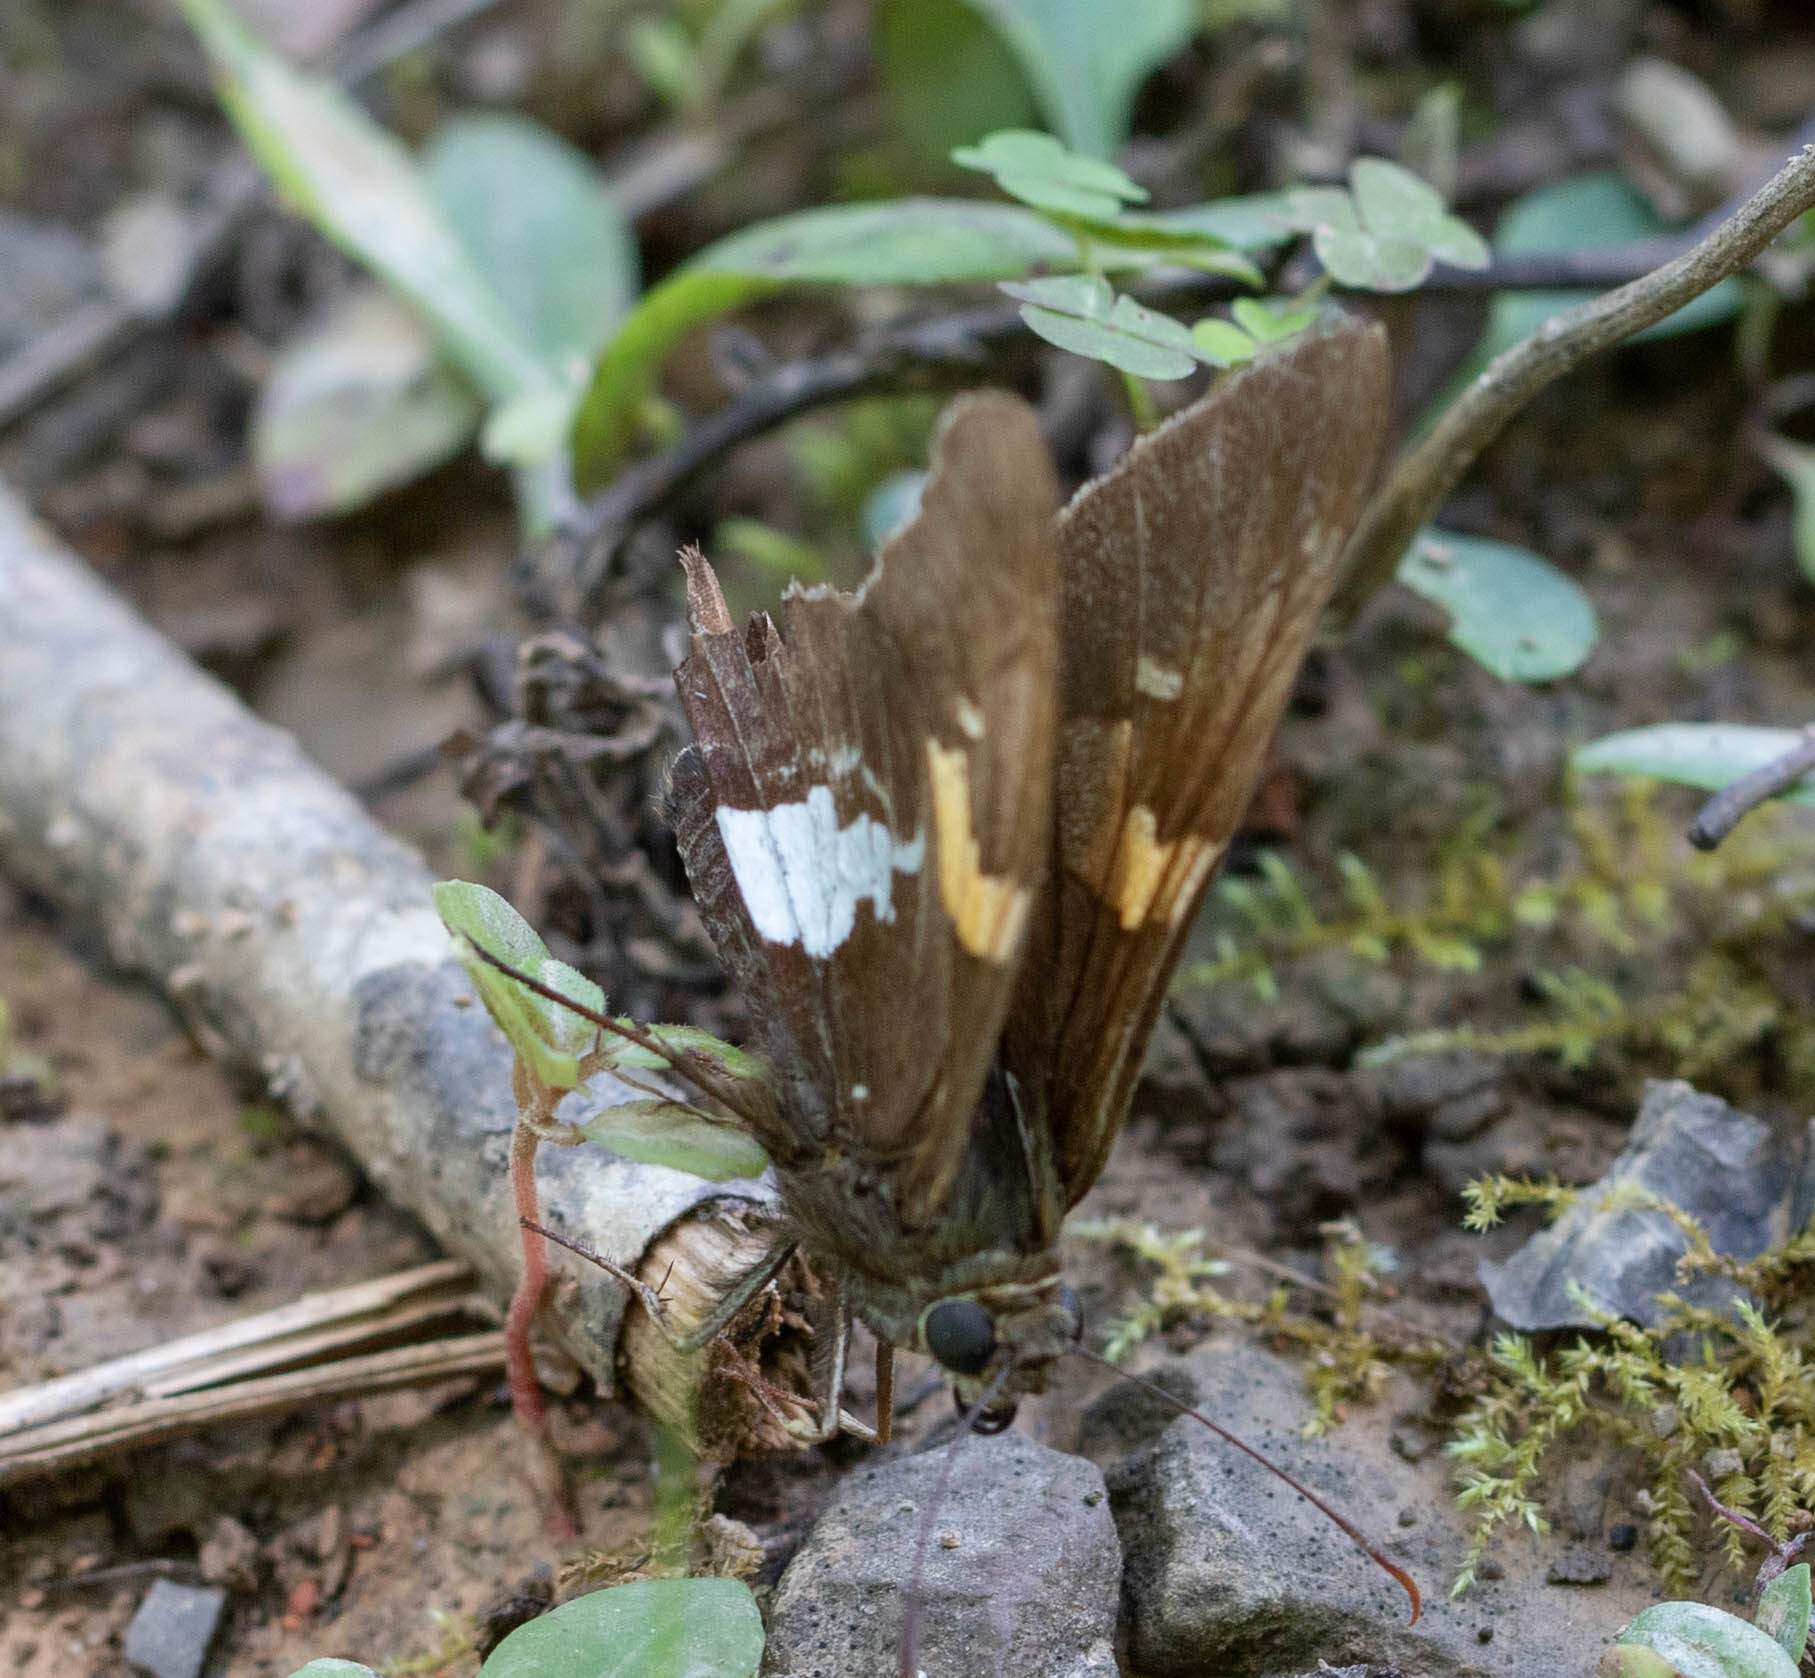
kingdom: Animalia
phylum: Arthropoda
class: Insecta
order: Lepidoptera
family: Hesperiidae
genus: Epargyreus
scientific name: Epargyreus clarus
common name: Silver-spotted skipper
